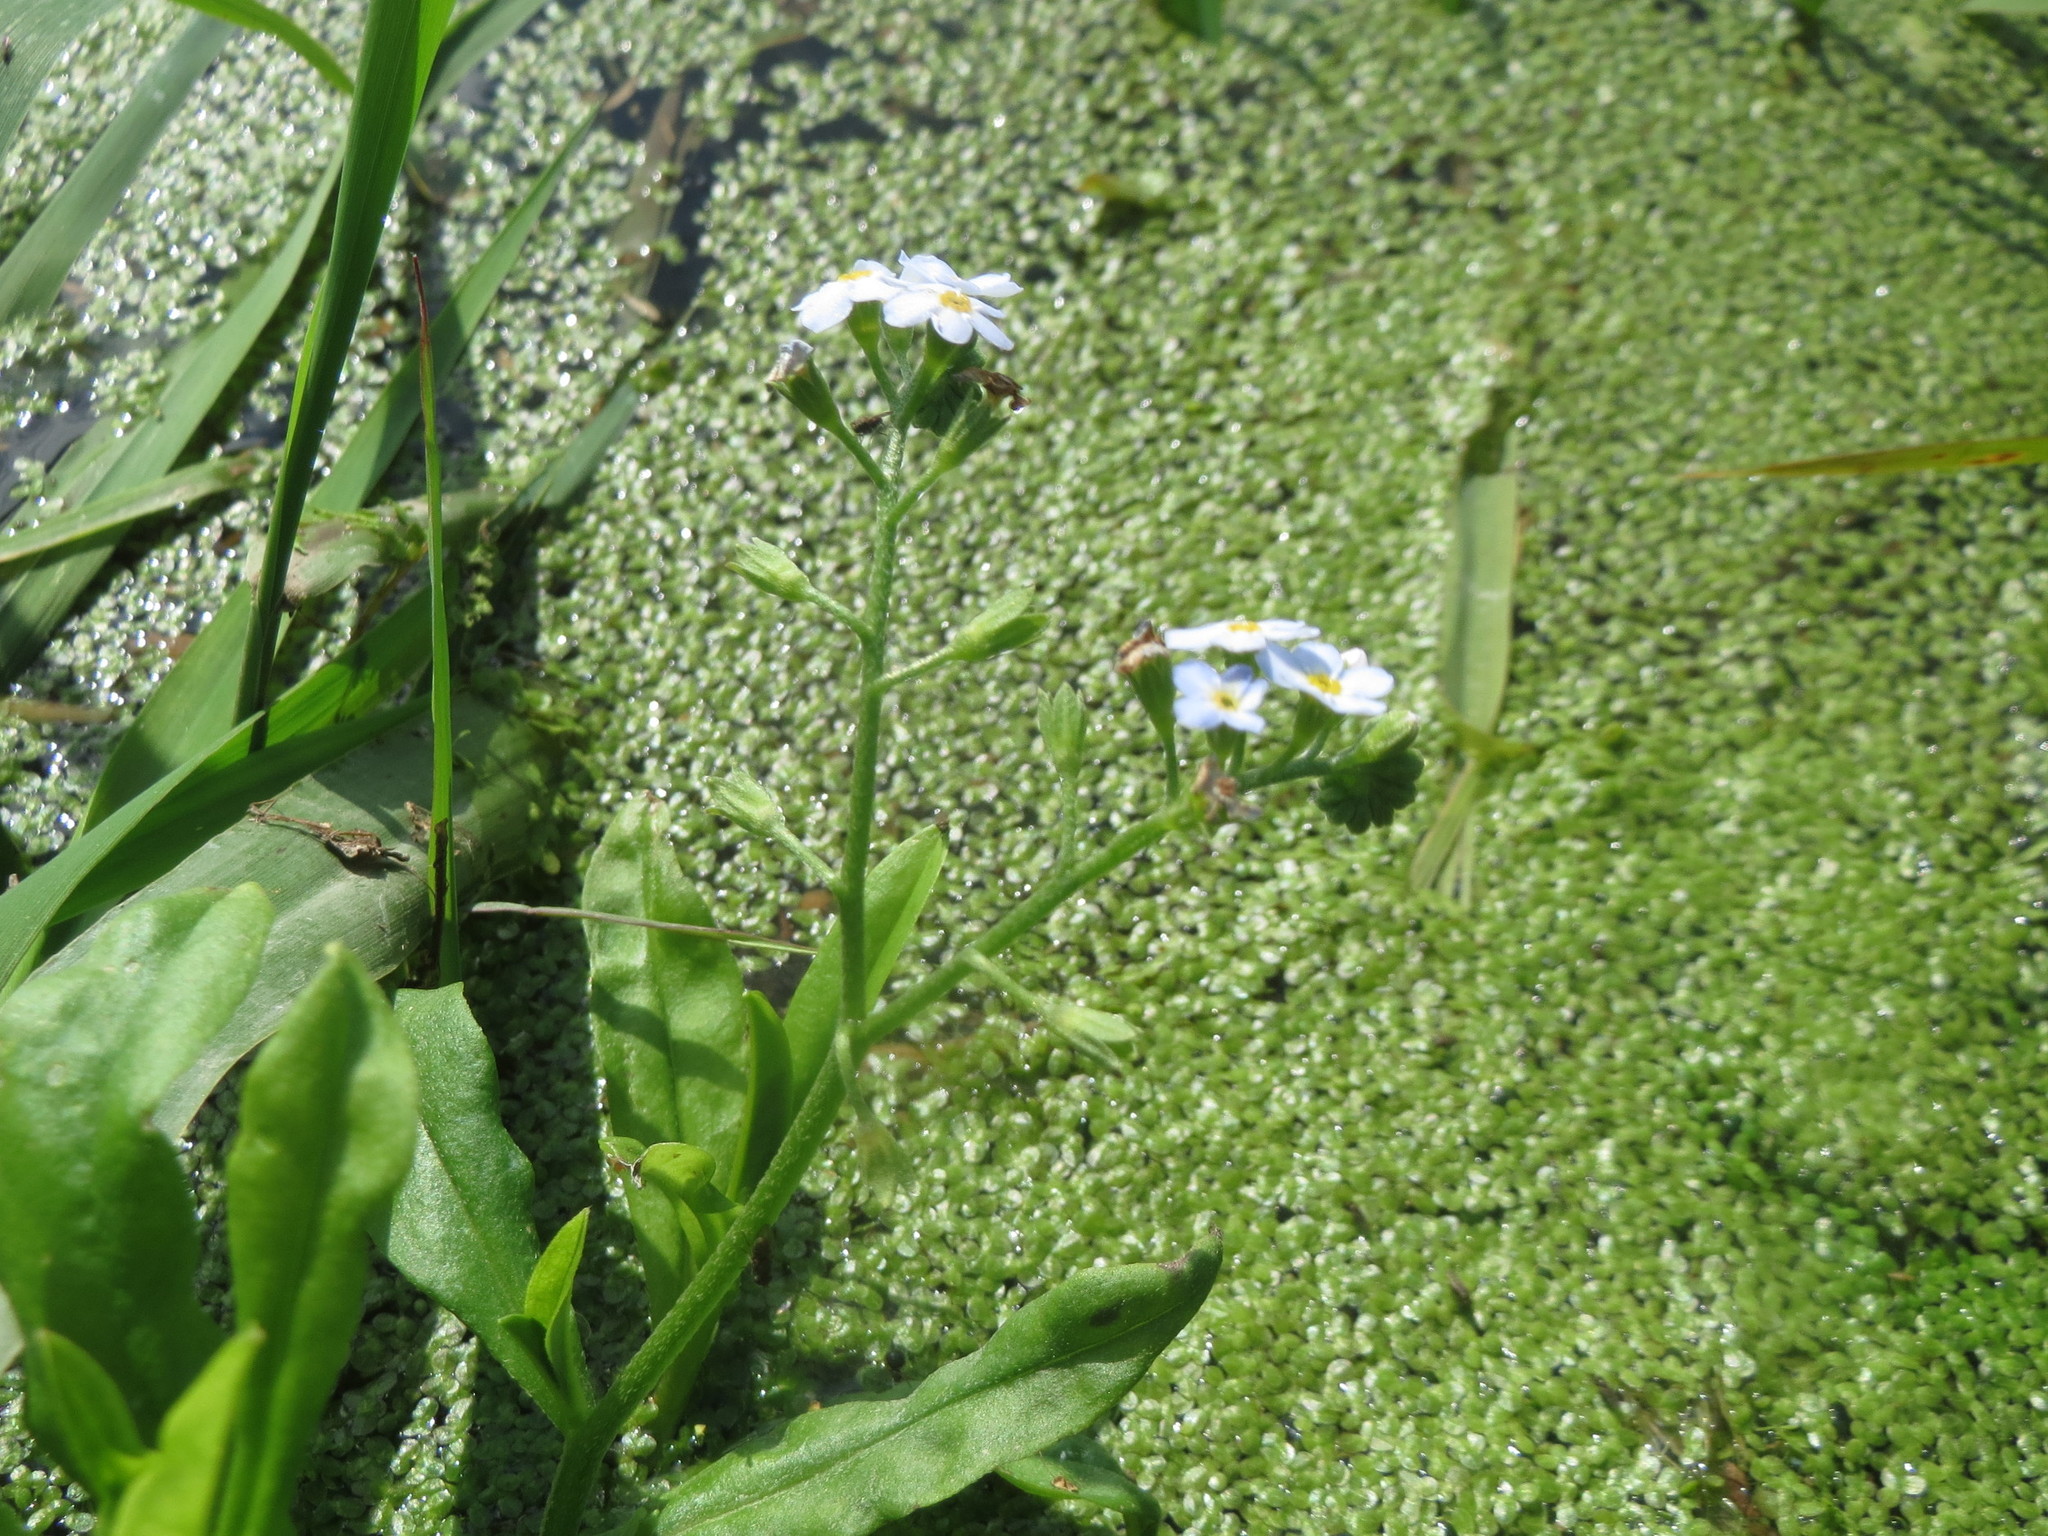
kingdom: Plantae
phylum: Tracheophyta
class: Magnoliopsida
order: Boraginales
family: Boraginaceae
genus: Myosotis
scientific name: Myosotis scorpioides
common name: Water forget-me-not
